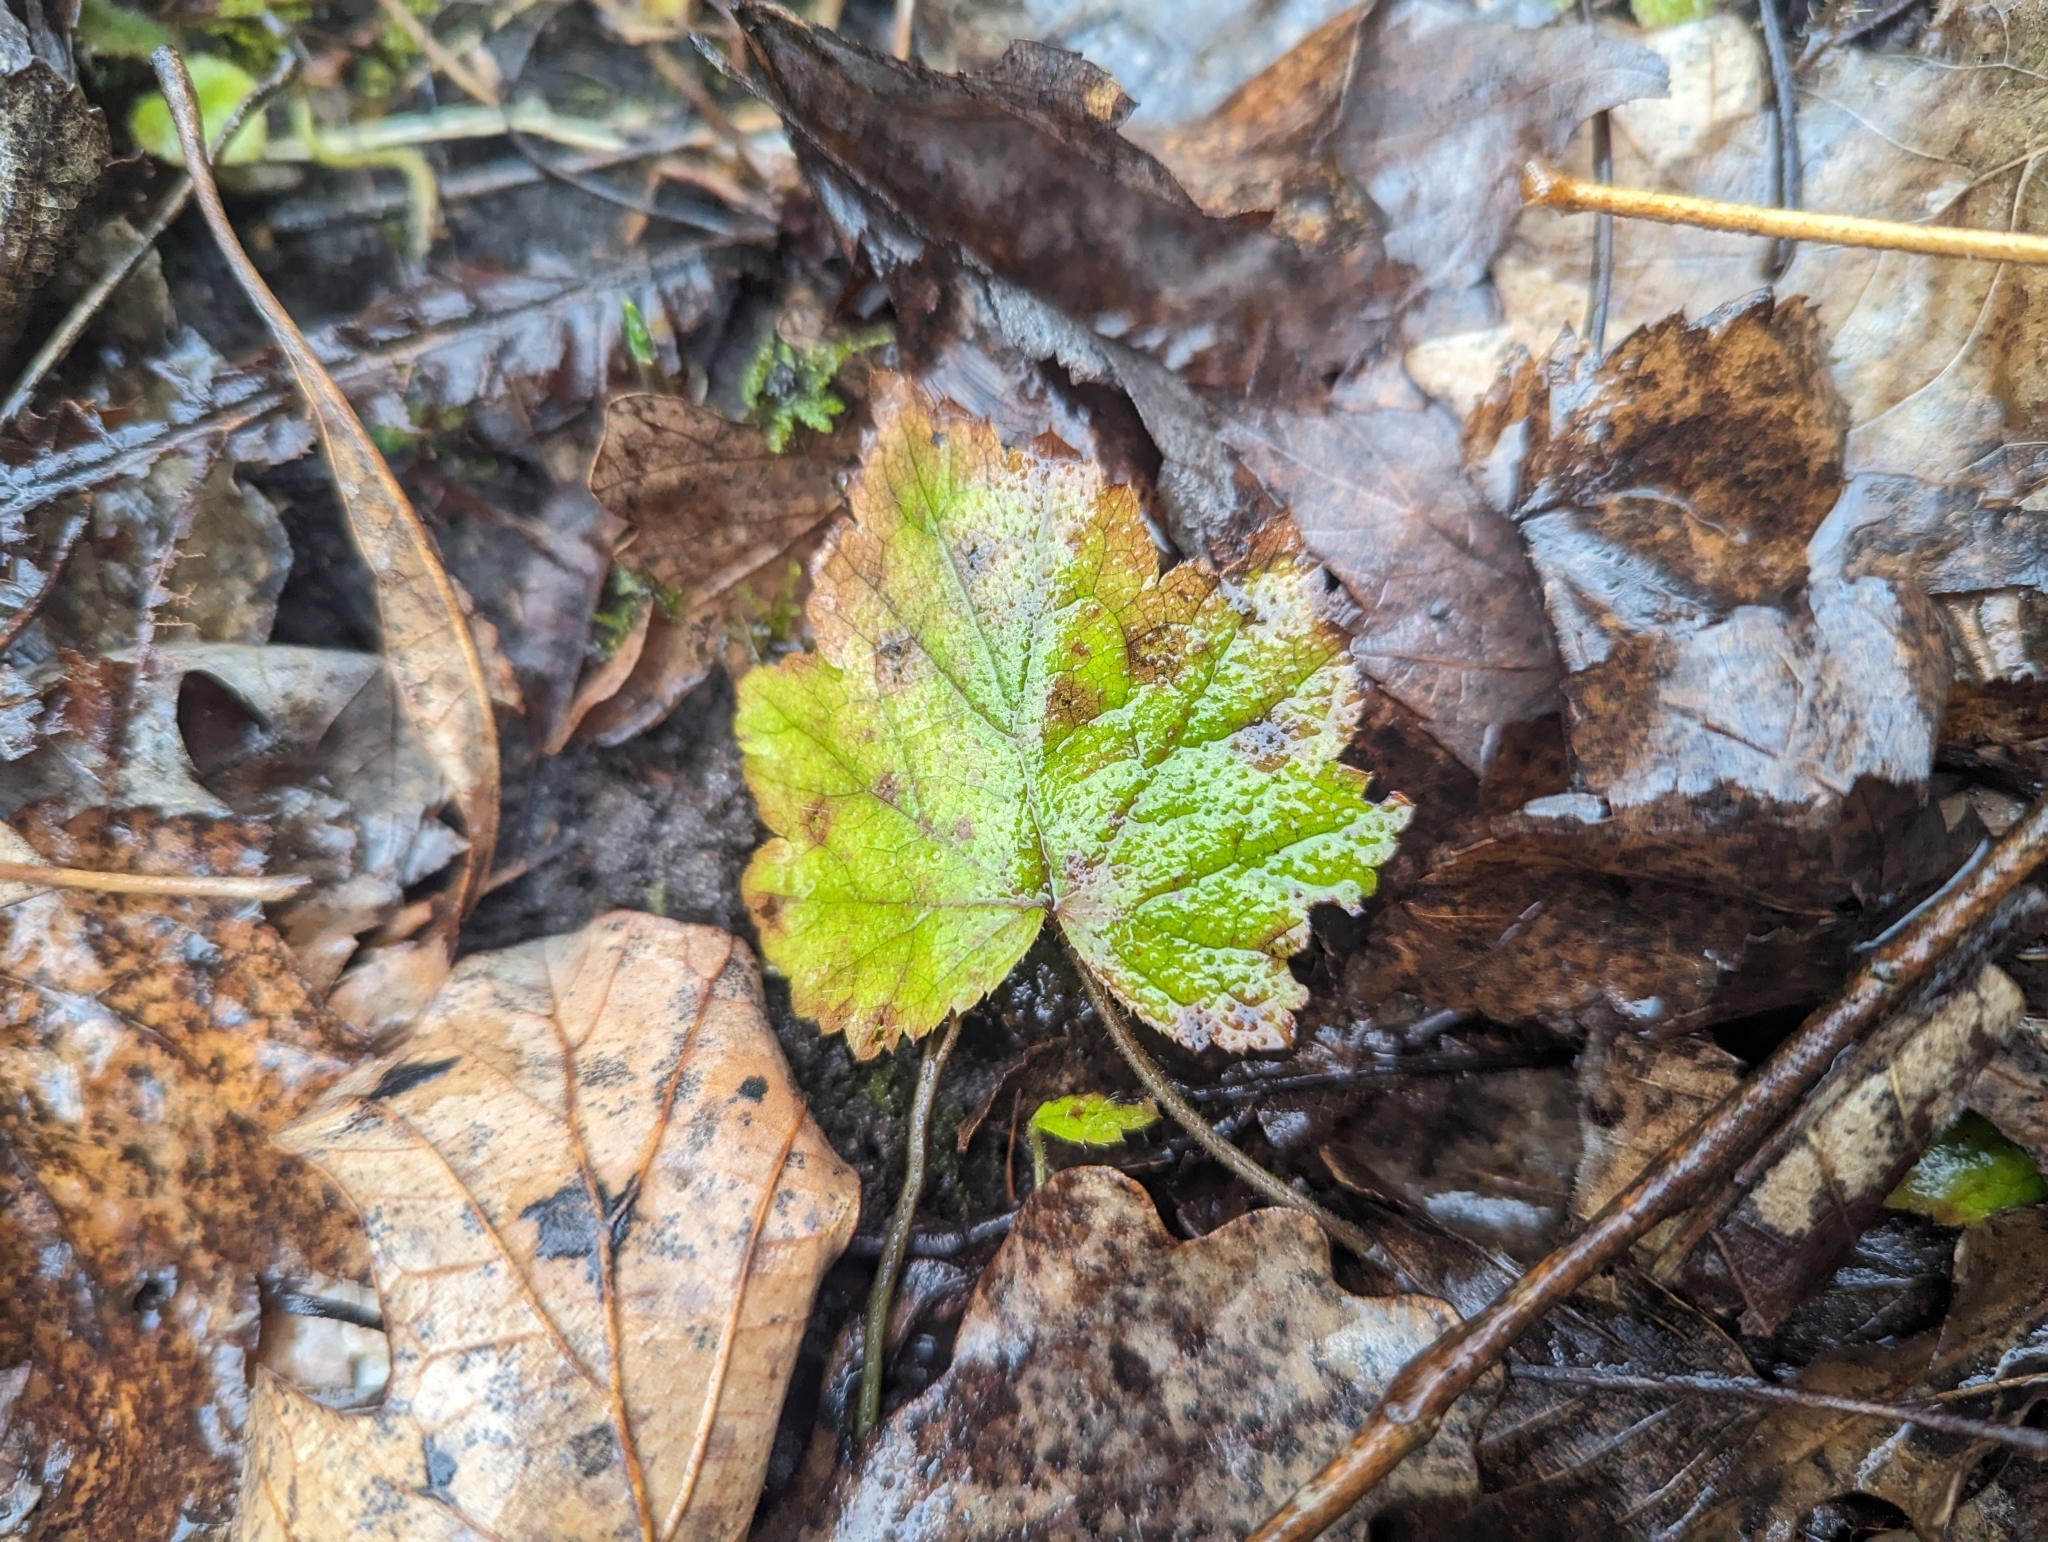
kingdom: Plantae
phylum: Tracheophyta
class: Magnoliopsida
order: Saxifragales
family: Saxifragaceae
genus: Tiarella
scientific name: Tiarella stolonifera
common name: Stoloniferous foamflower
